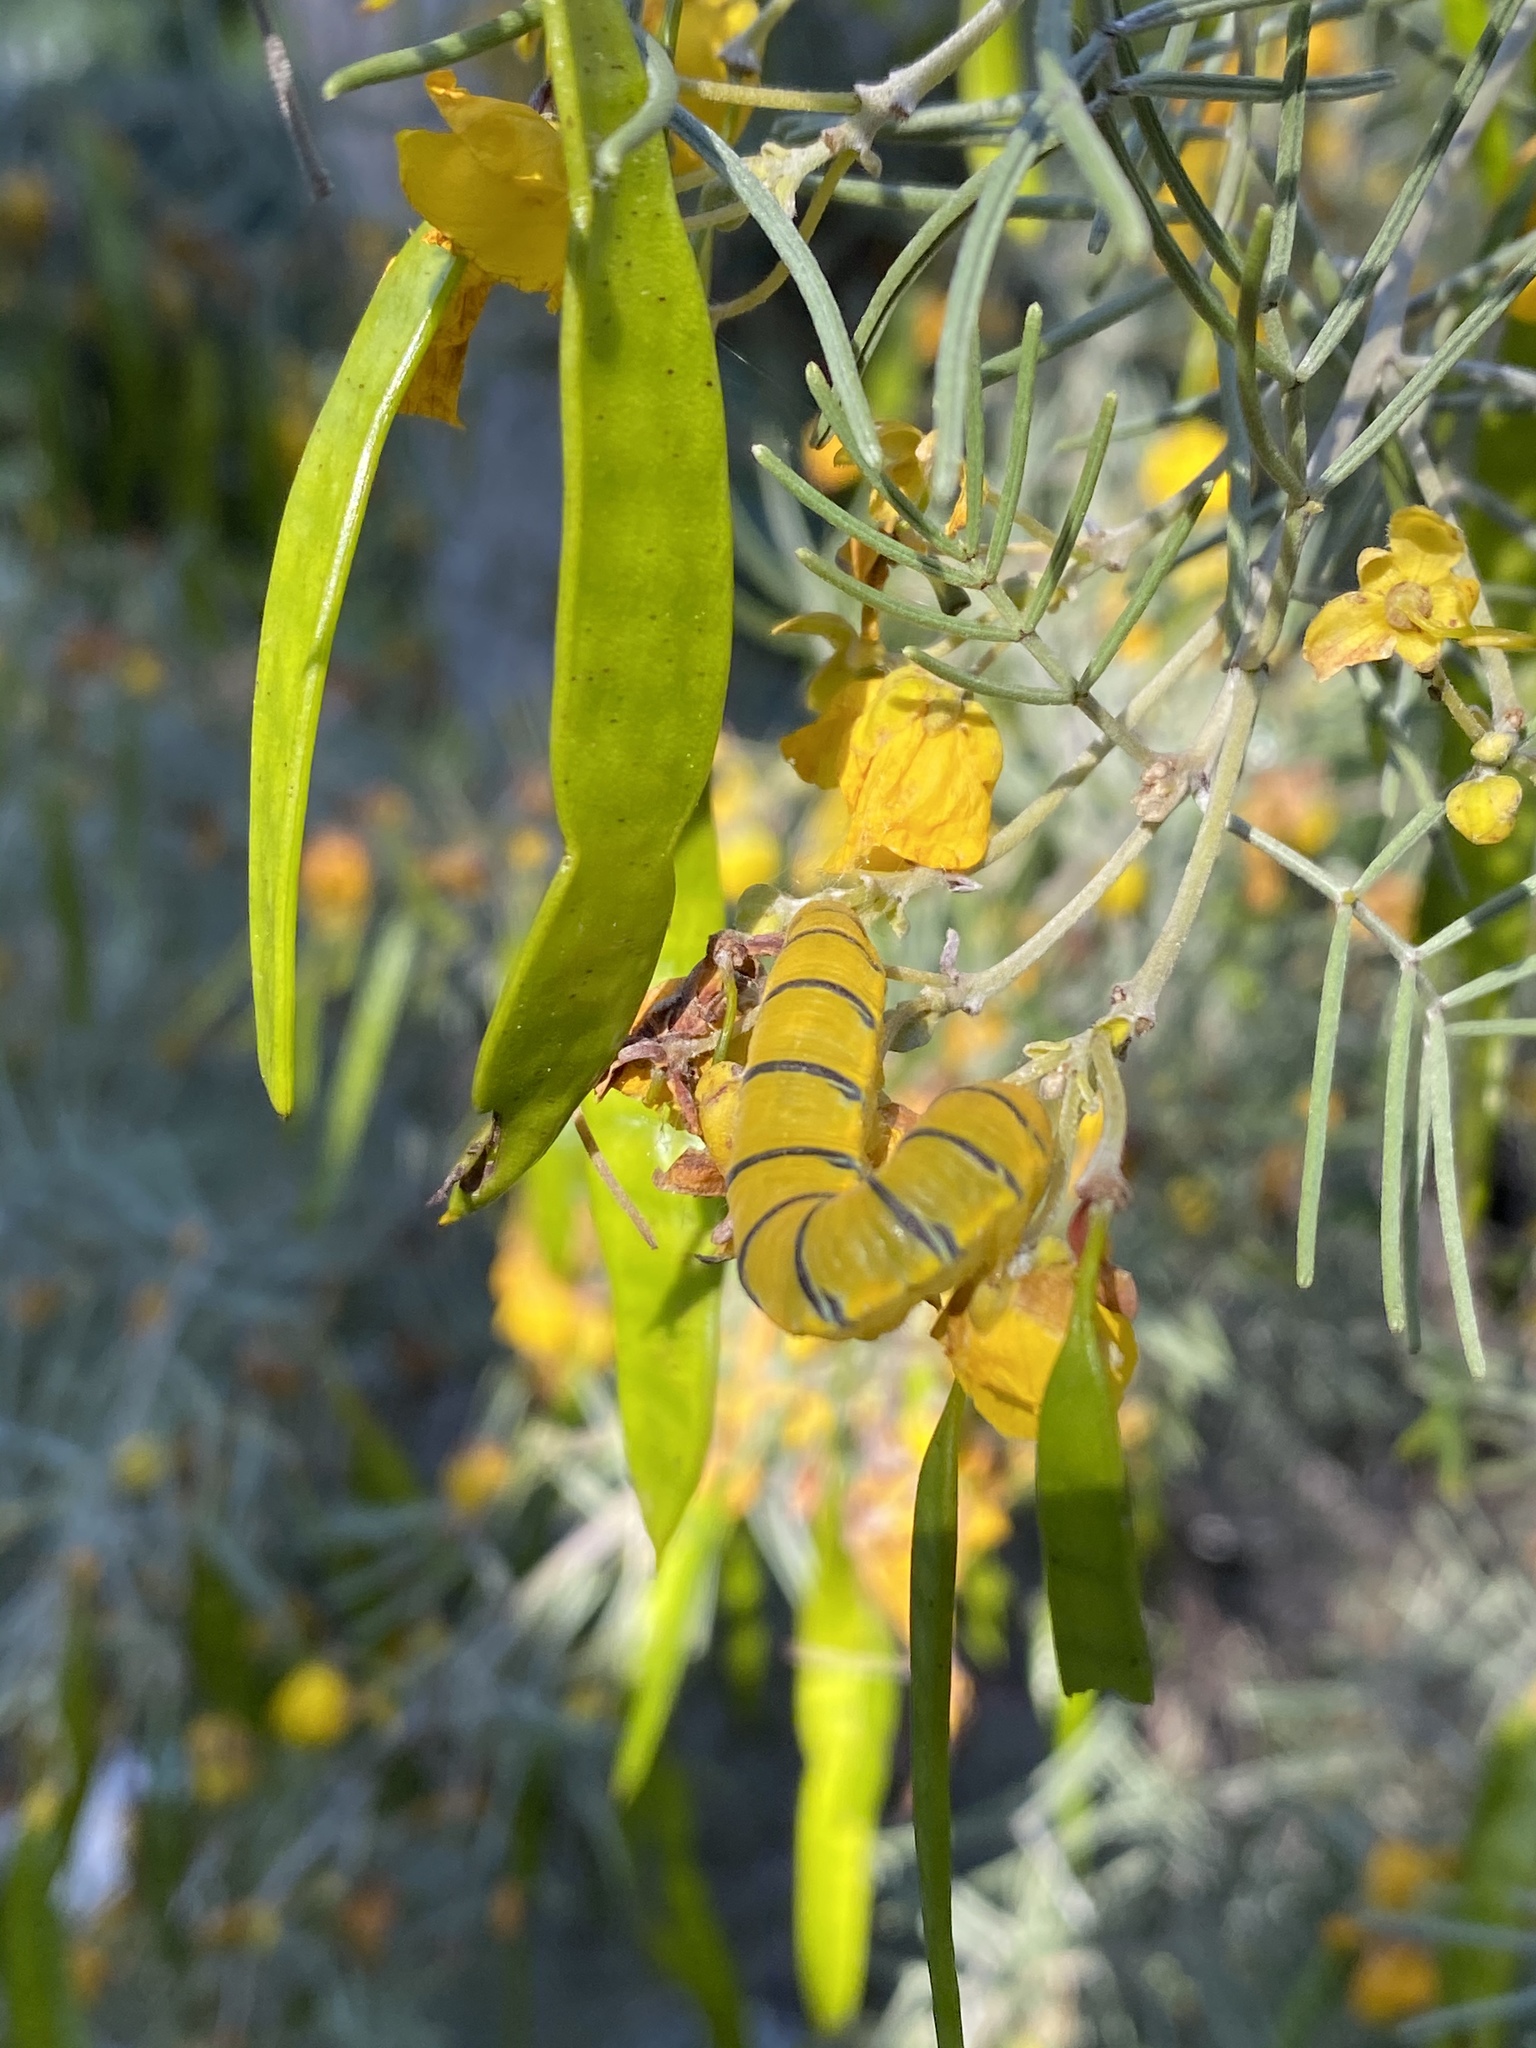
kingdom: Animalia
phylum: Arthropoda
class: Insecta
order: Lepidoptera
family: Pieridae
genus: Phoebis
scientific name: Phoebis sennae
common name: Cloudless sulphur
